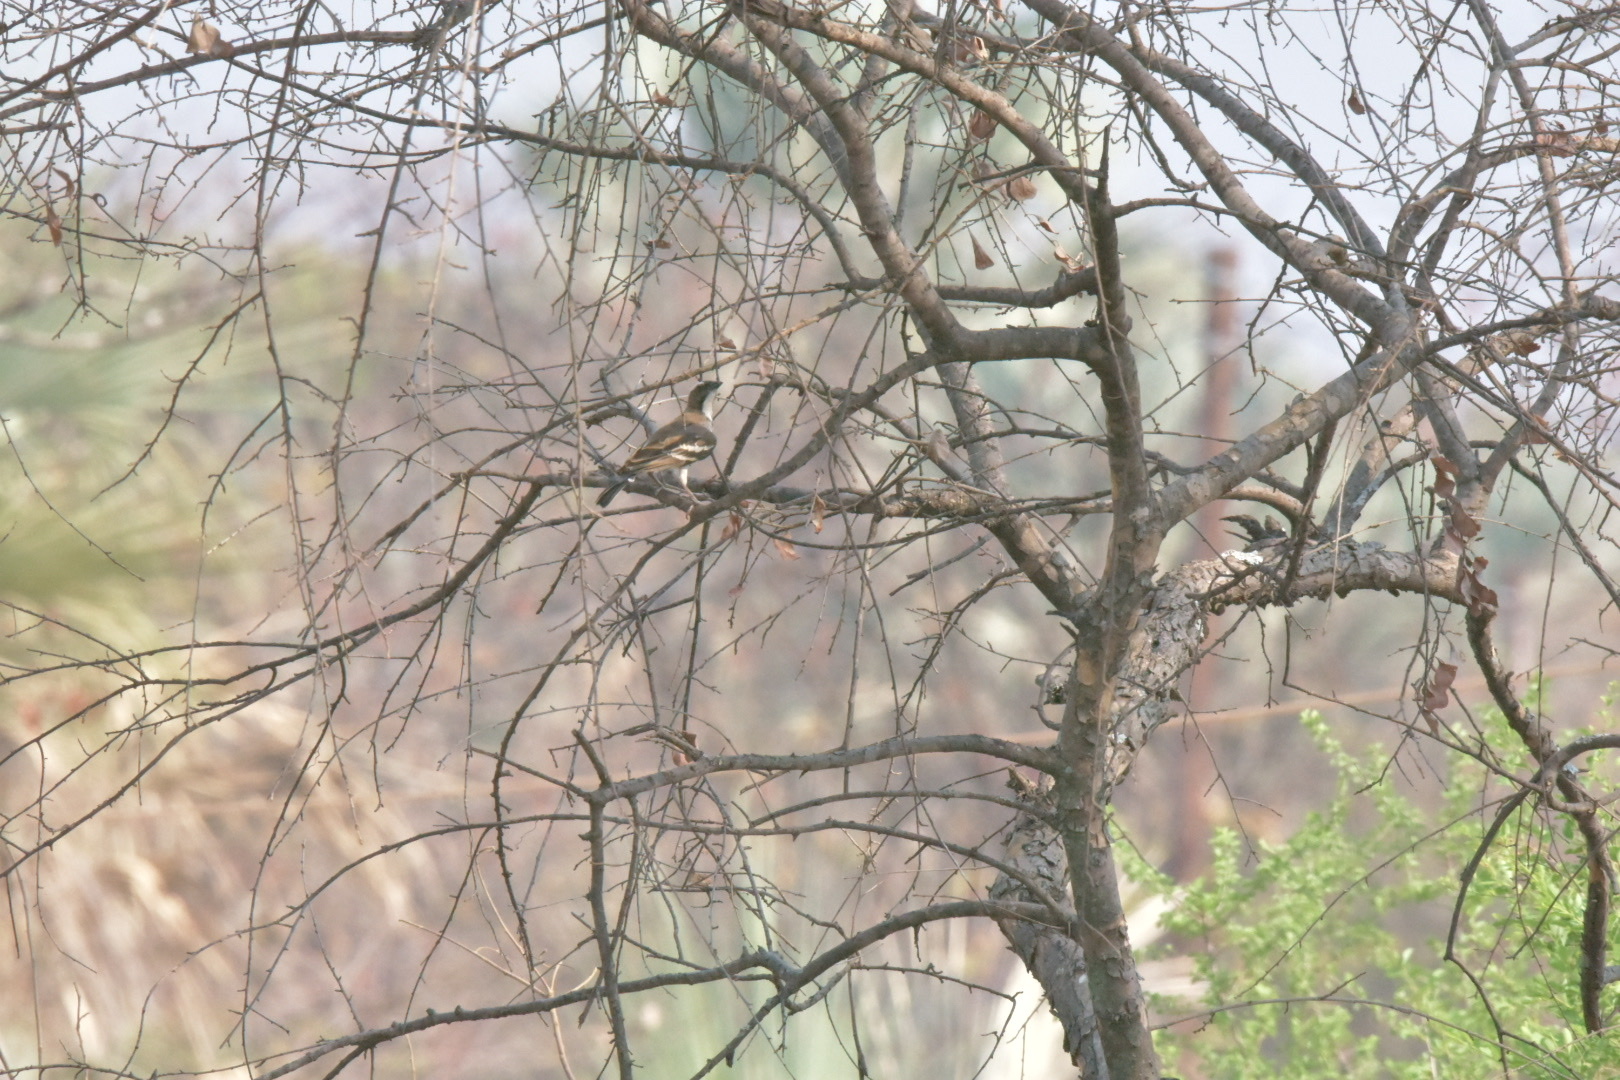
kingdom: Animalia
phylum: Chordata
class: Aves
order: Passeriformes
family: Passeridae
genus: Plocepasser
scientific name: Plocepasser mahali
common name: White-browed sparrow-weaver
